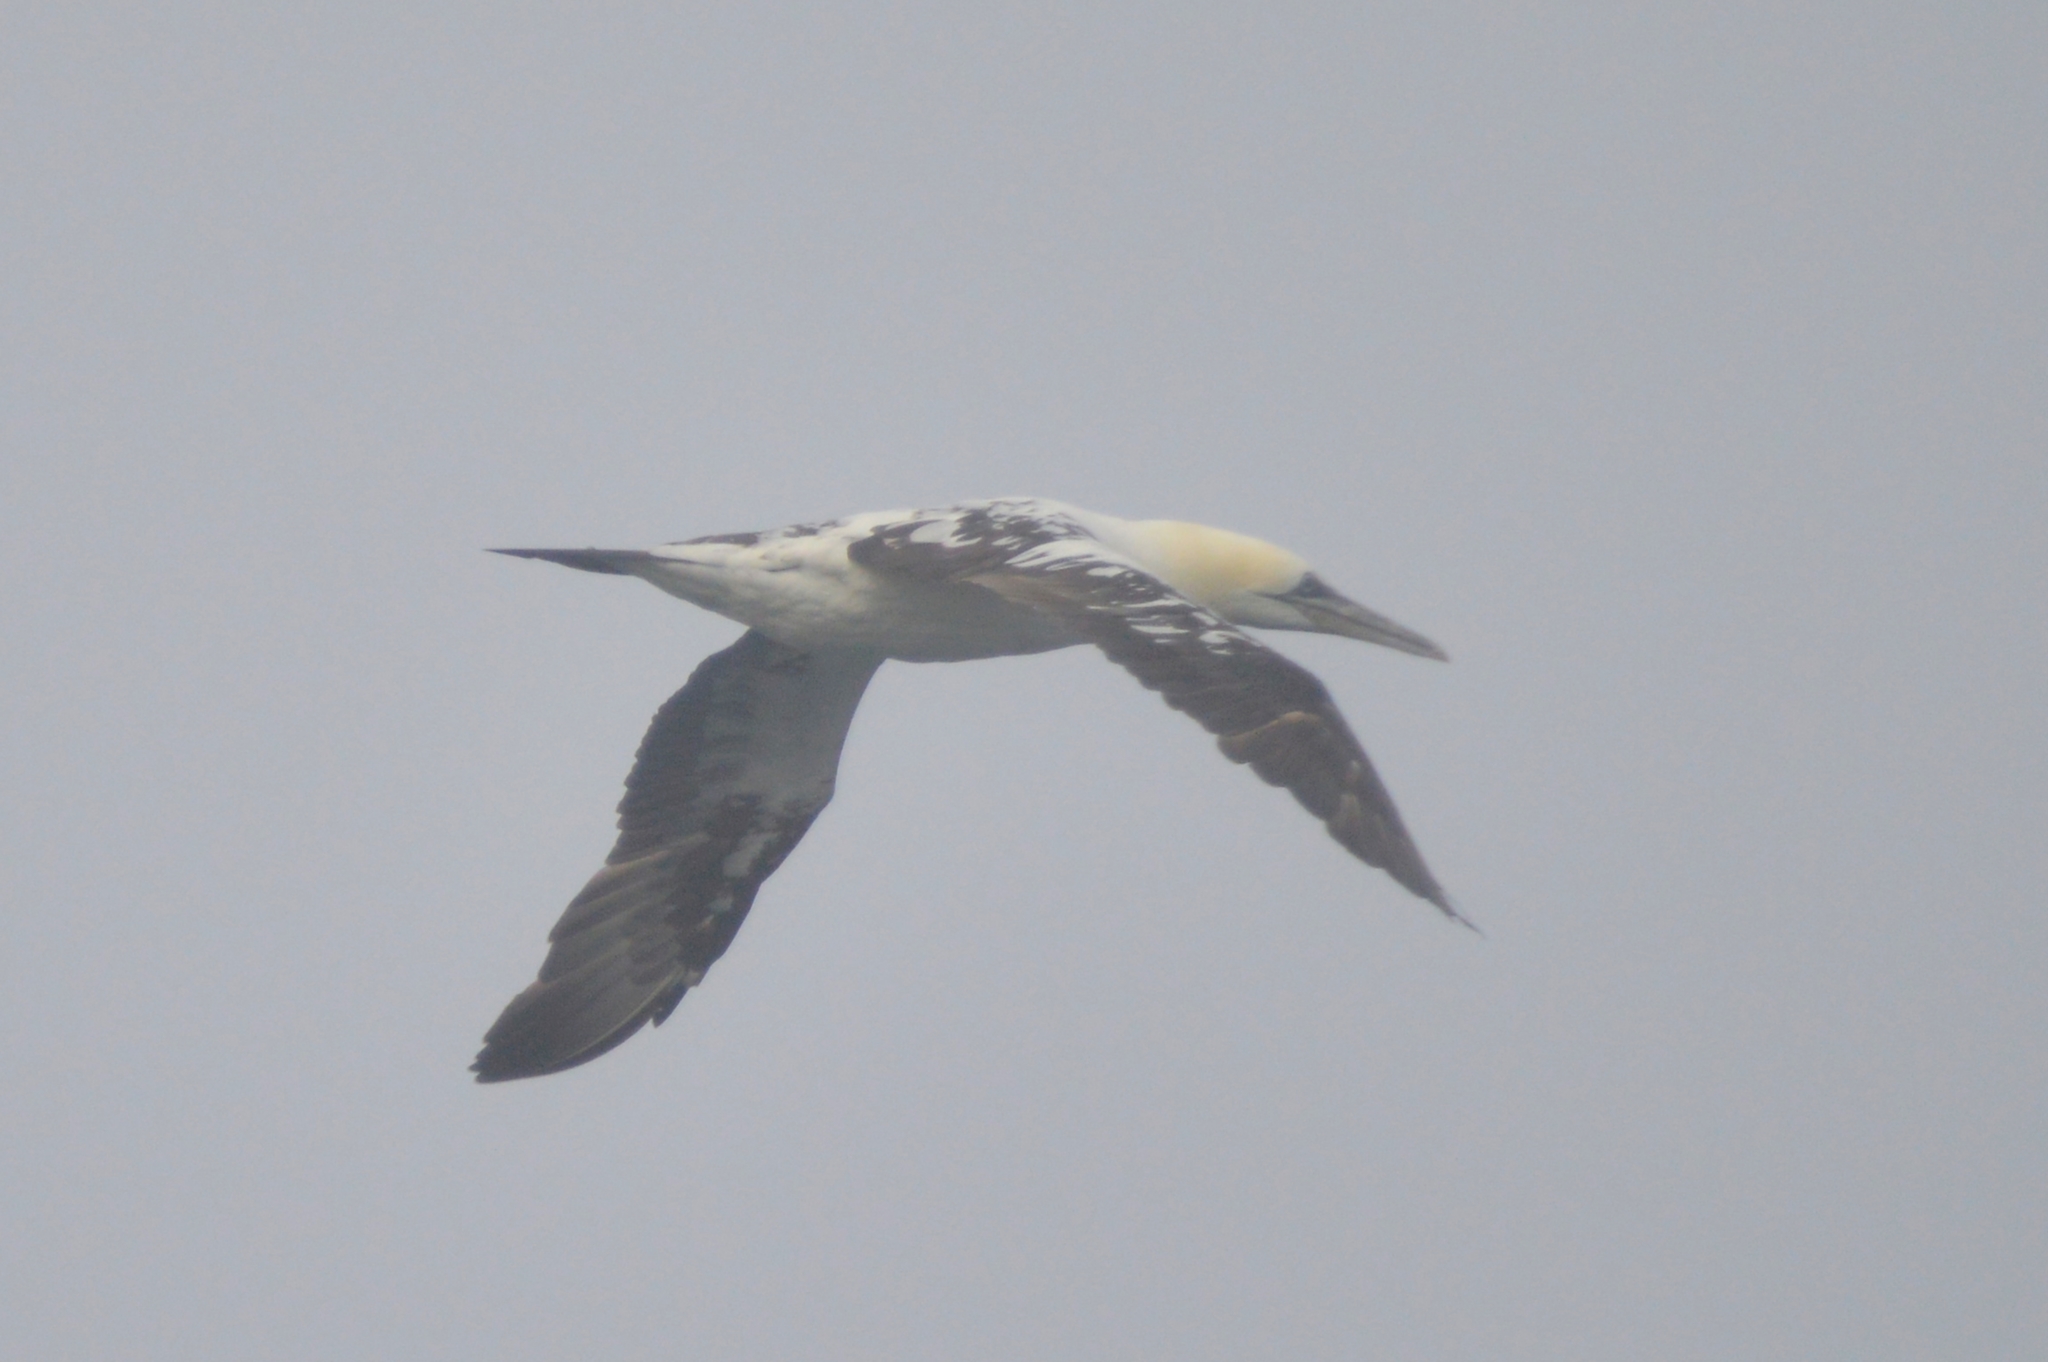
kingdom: Animalia
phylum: Chordata
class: Aves
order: Suliformes
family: Sulidae
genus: Morus
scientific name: Morus bassanus
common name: Northern gannet
